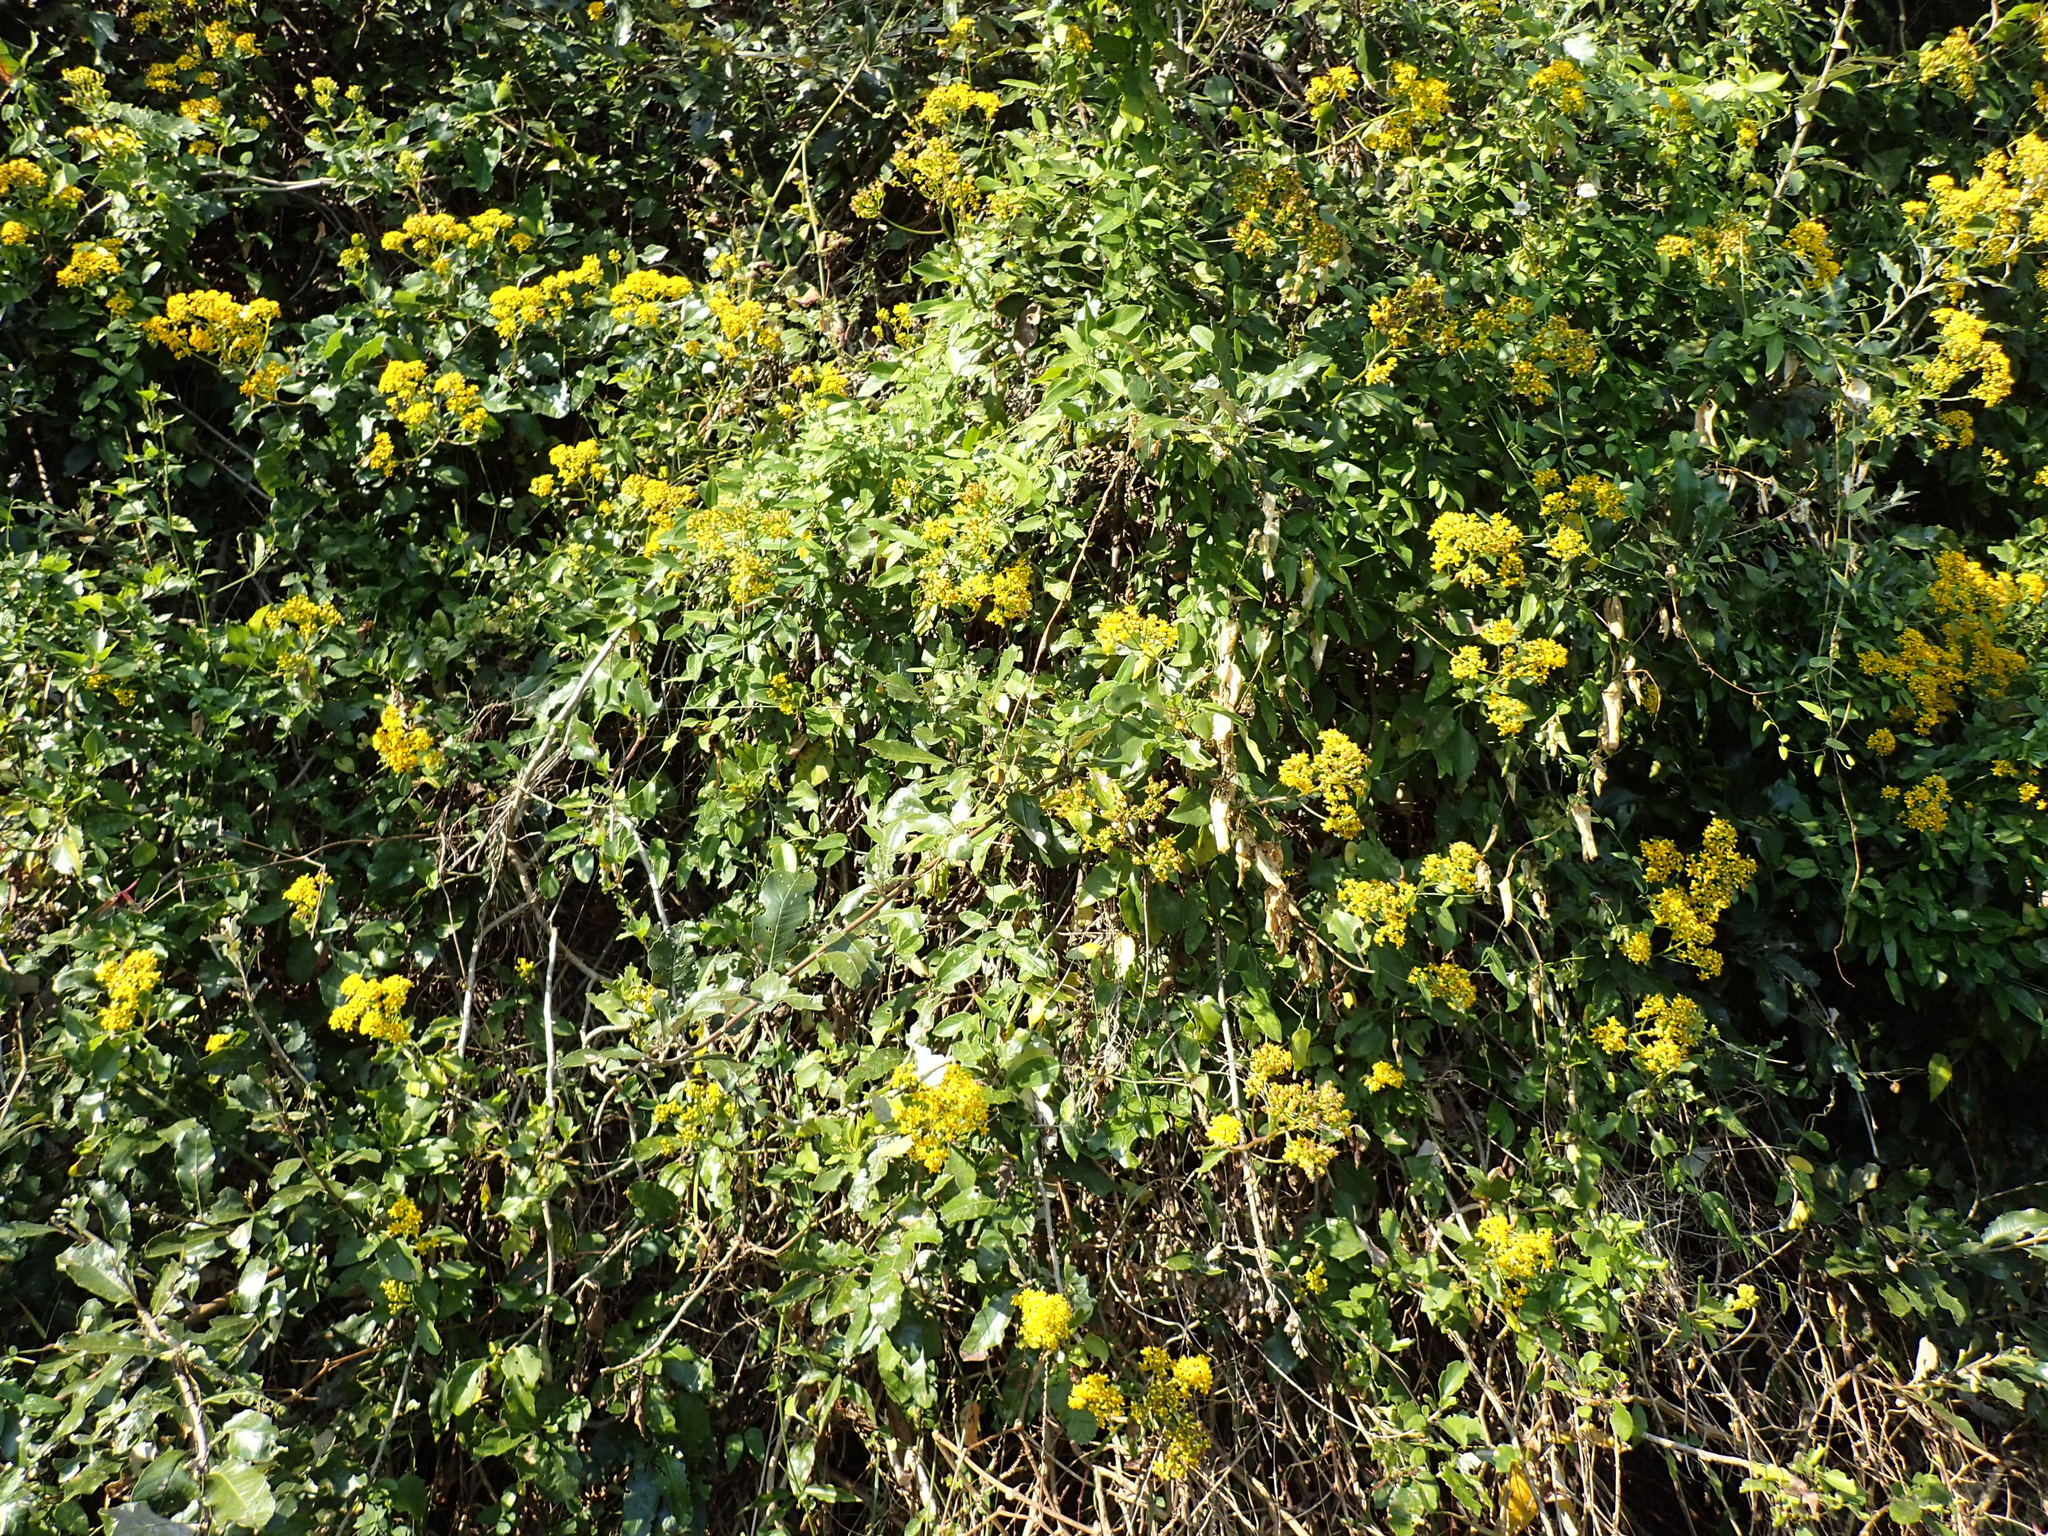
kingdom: Plantae
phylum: Tracheophyta
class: Magnoliopsida
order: Asterales
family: Asteraceae
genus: Senecio
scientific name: Senecio brachypodus
